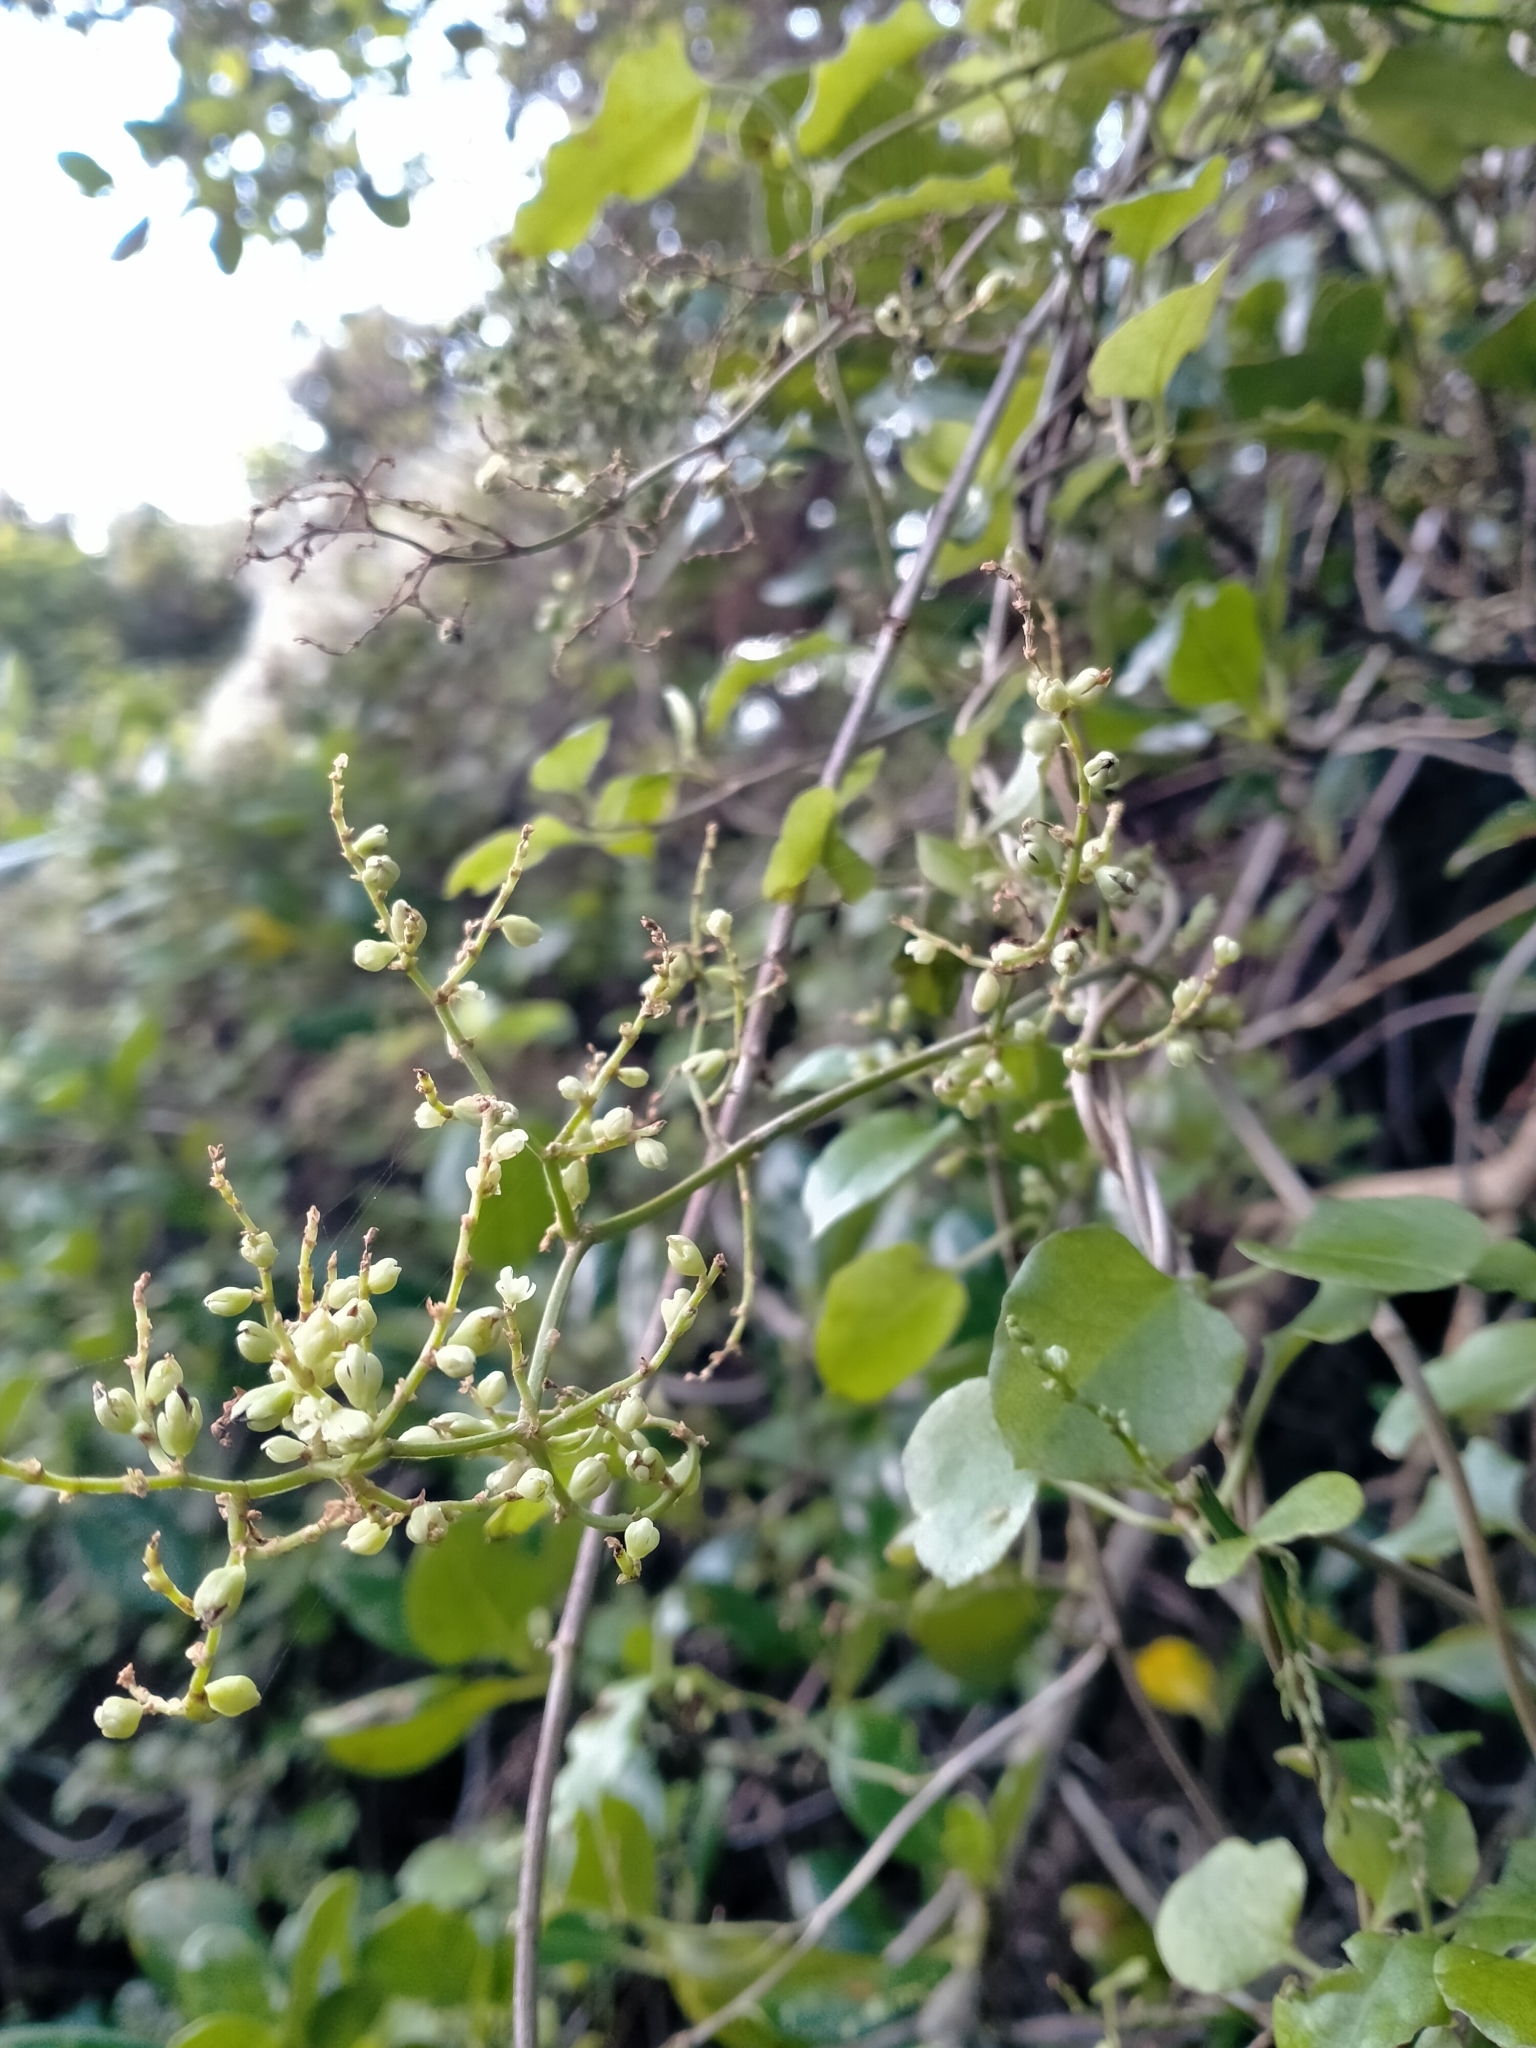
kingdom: Plantae
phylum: Tracheophyta
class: Magnoliopsida
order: Caryophyllales
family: Polygonaceae
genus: Muehlenbeckia
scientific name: Muehlenbeckia australis
